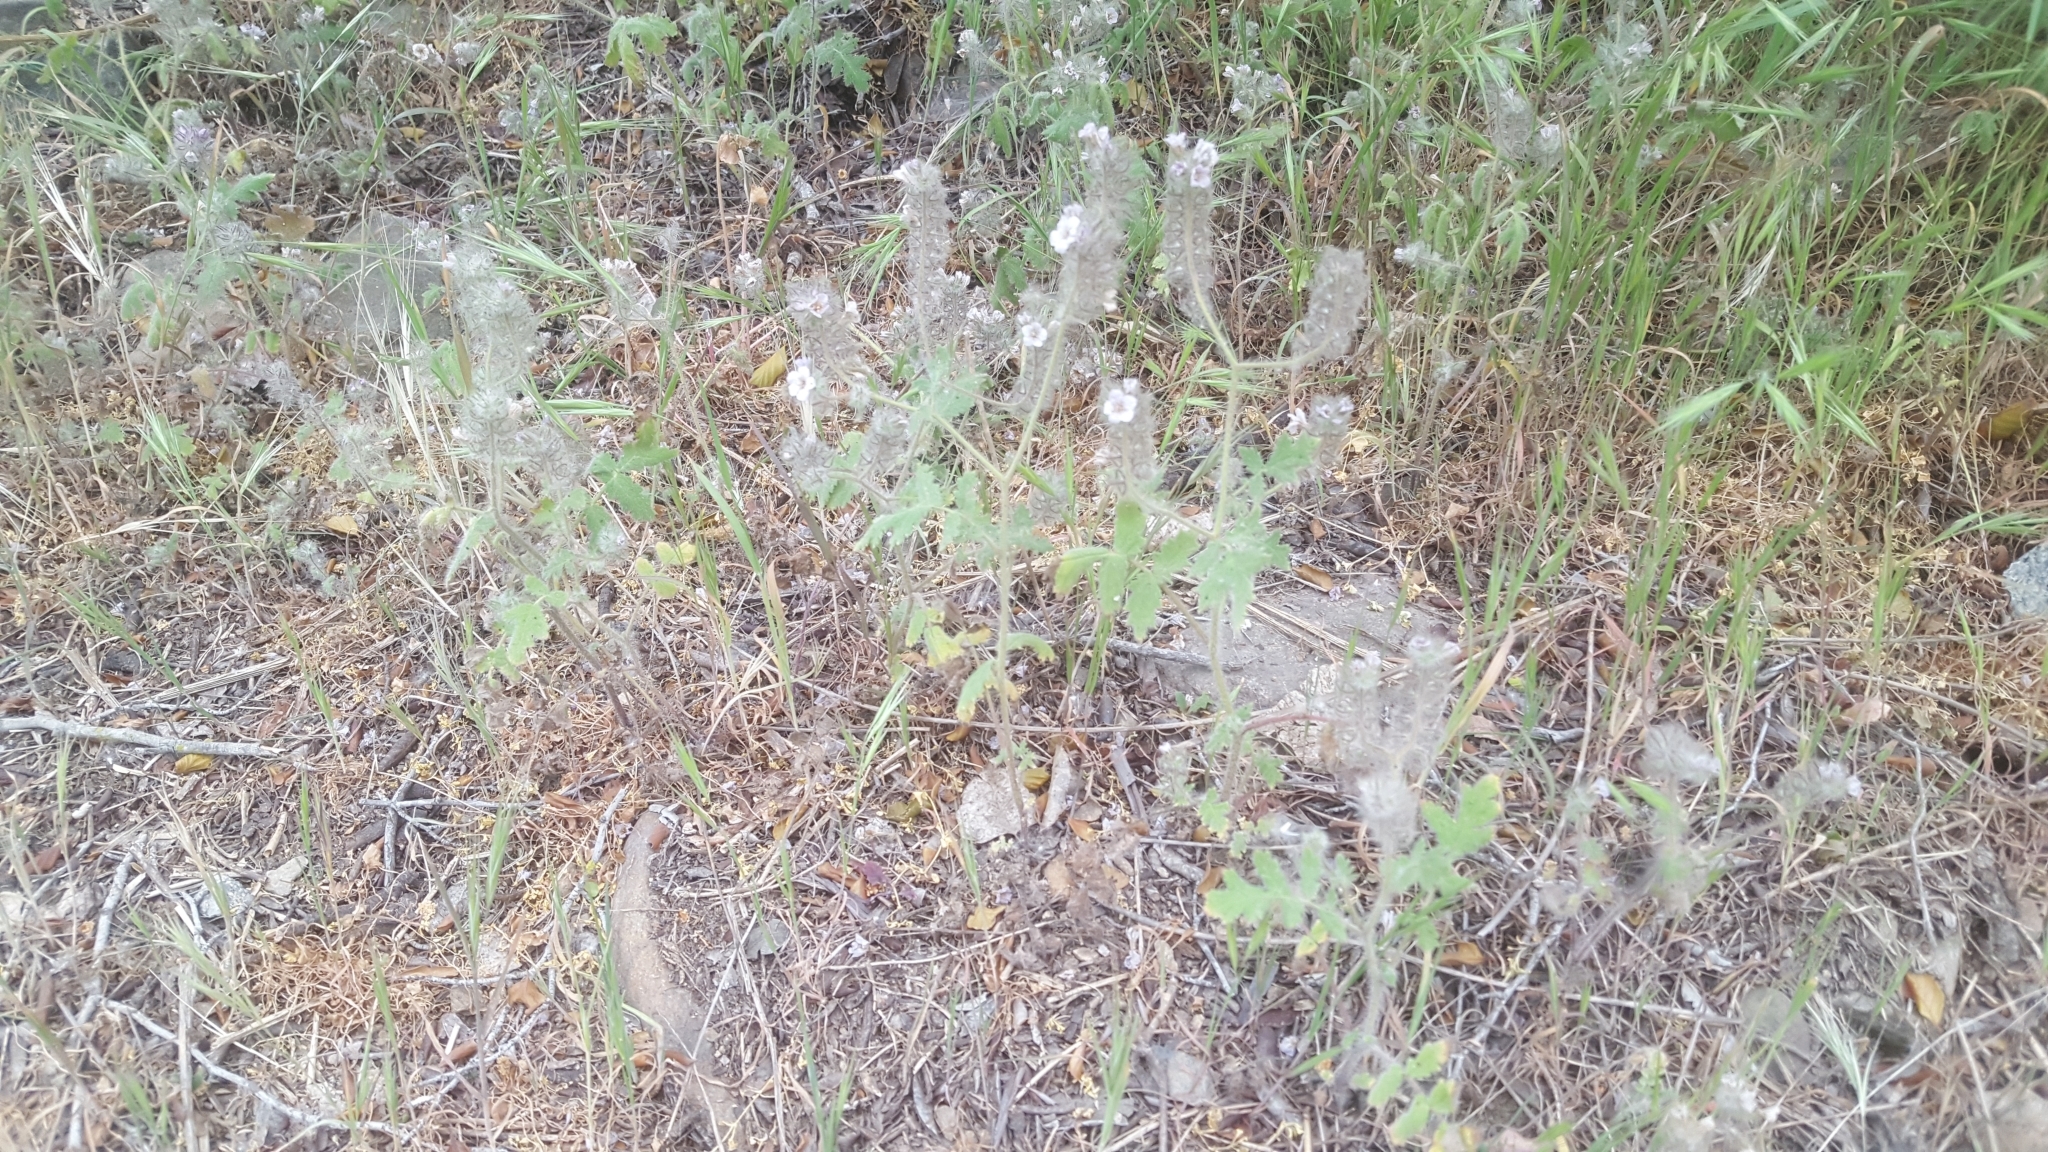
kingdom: Plantae
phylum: Tracheophyta
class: Magnoliopsida
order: Boraginales
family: Hydrophyllaceae
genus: Phacelia
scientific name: Phacelia cicutaria
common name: Caterpillar phacelia
